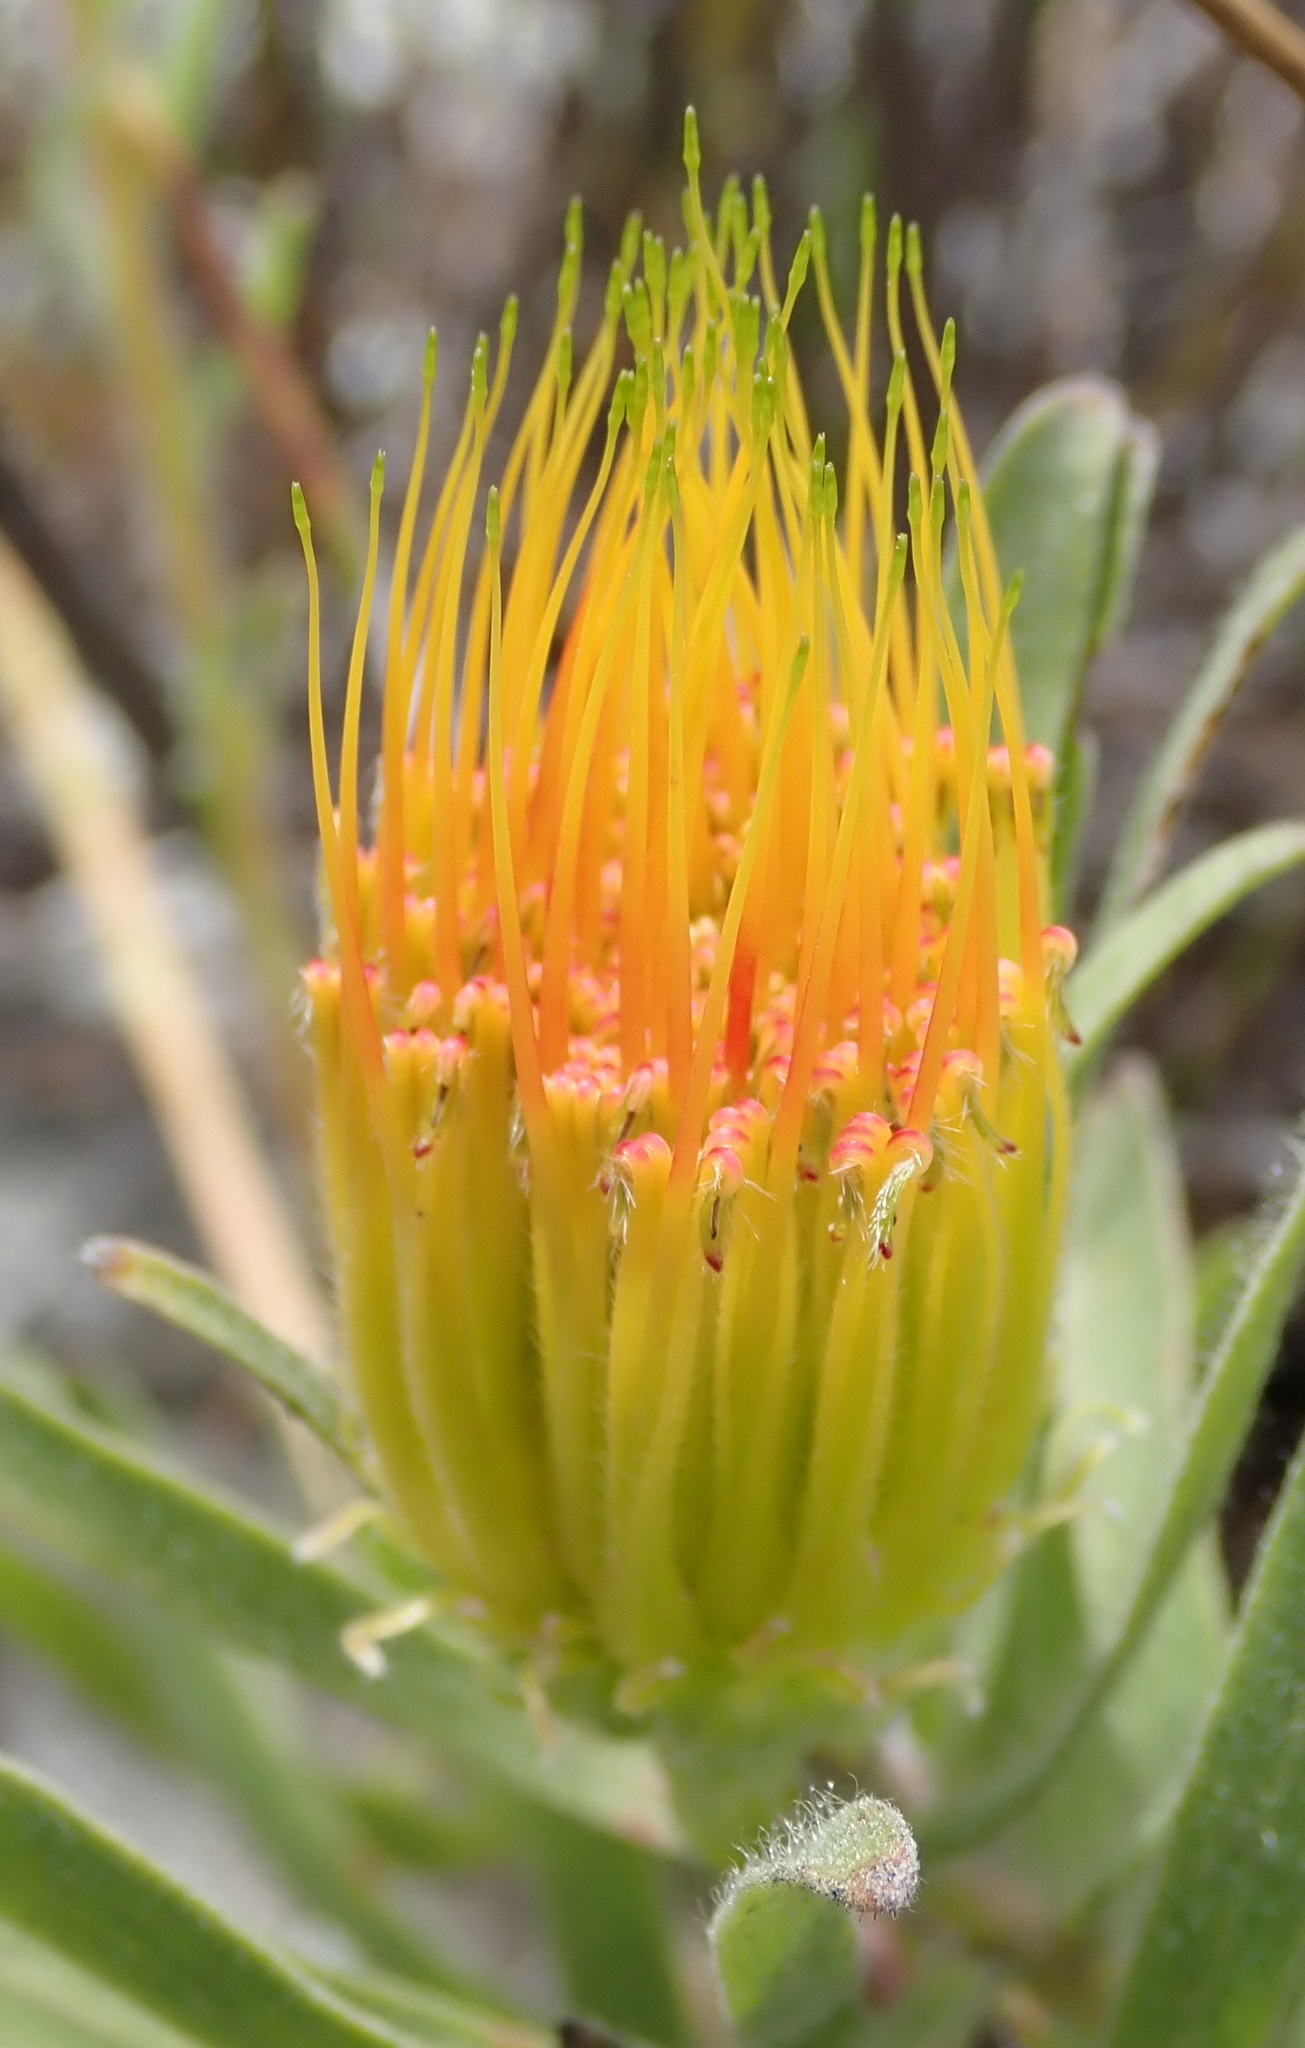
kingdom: Plantae
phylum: Tracheophyta
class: Magnoliopsida
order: Proteales
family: Proteaceae
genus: Leucospermum
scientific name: Leucospermum gracile
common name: Hermanus pincushion
